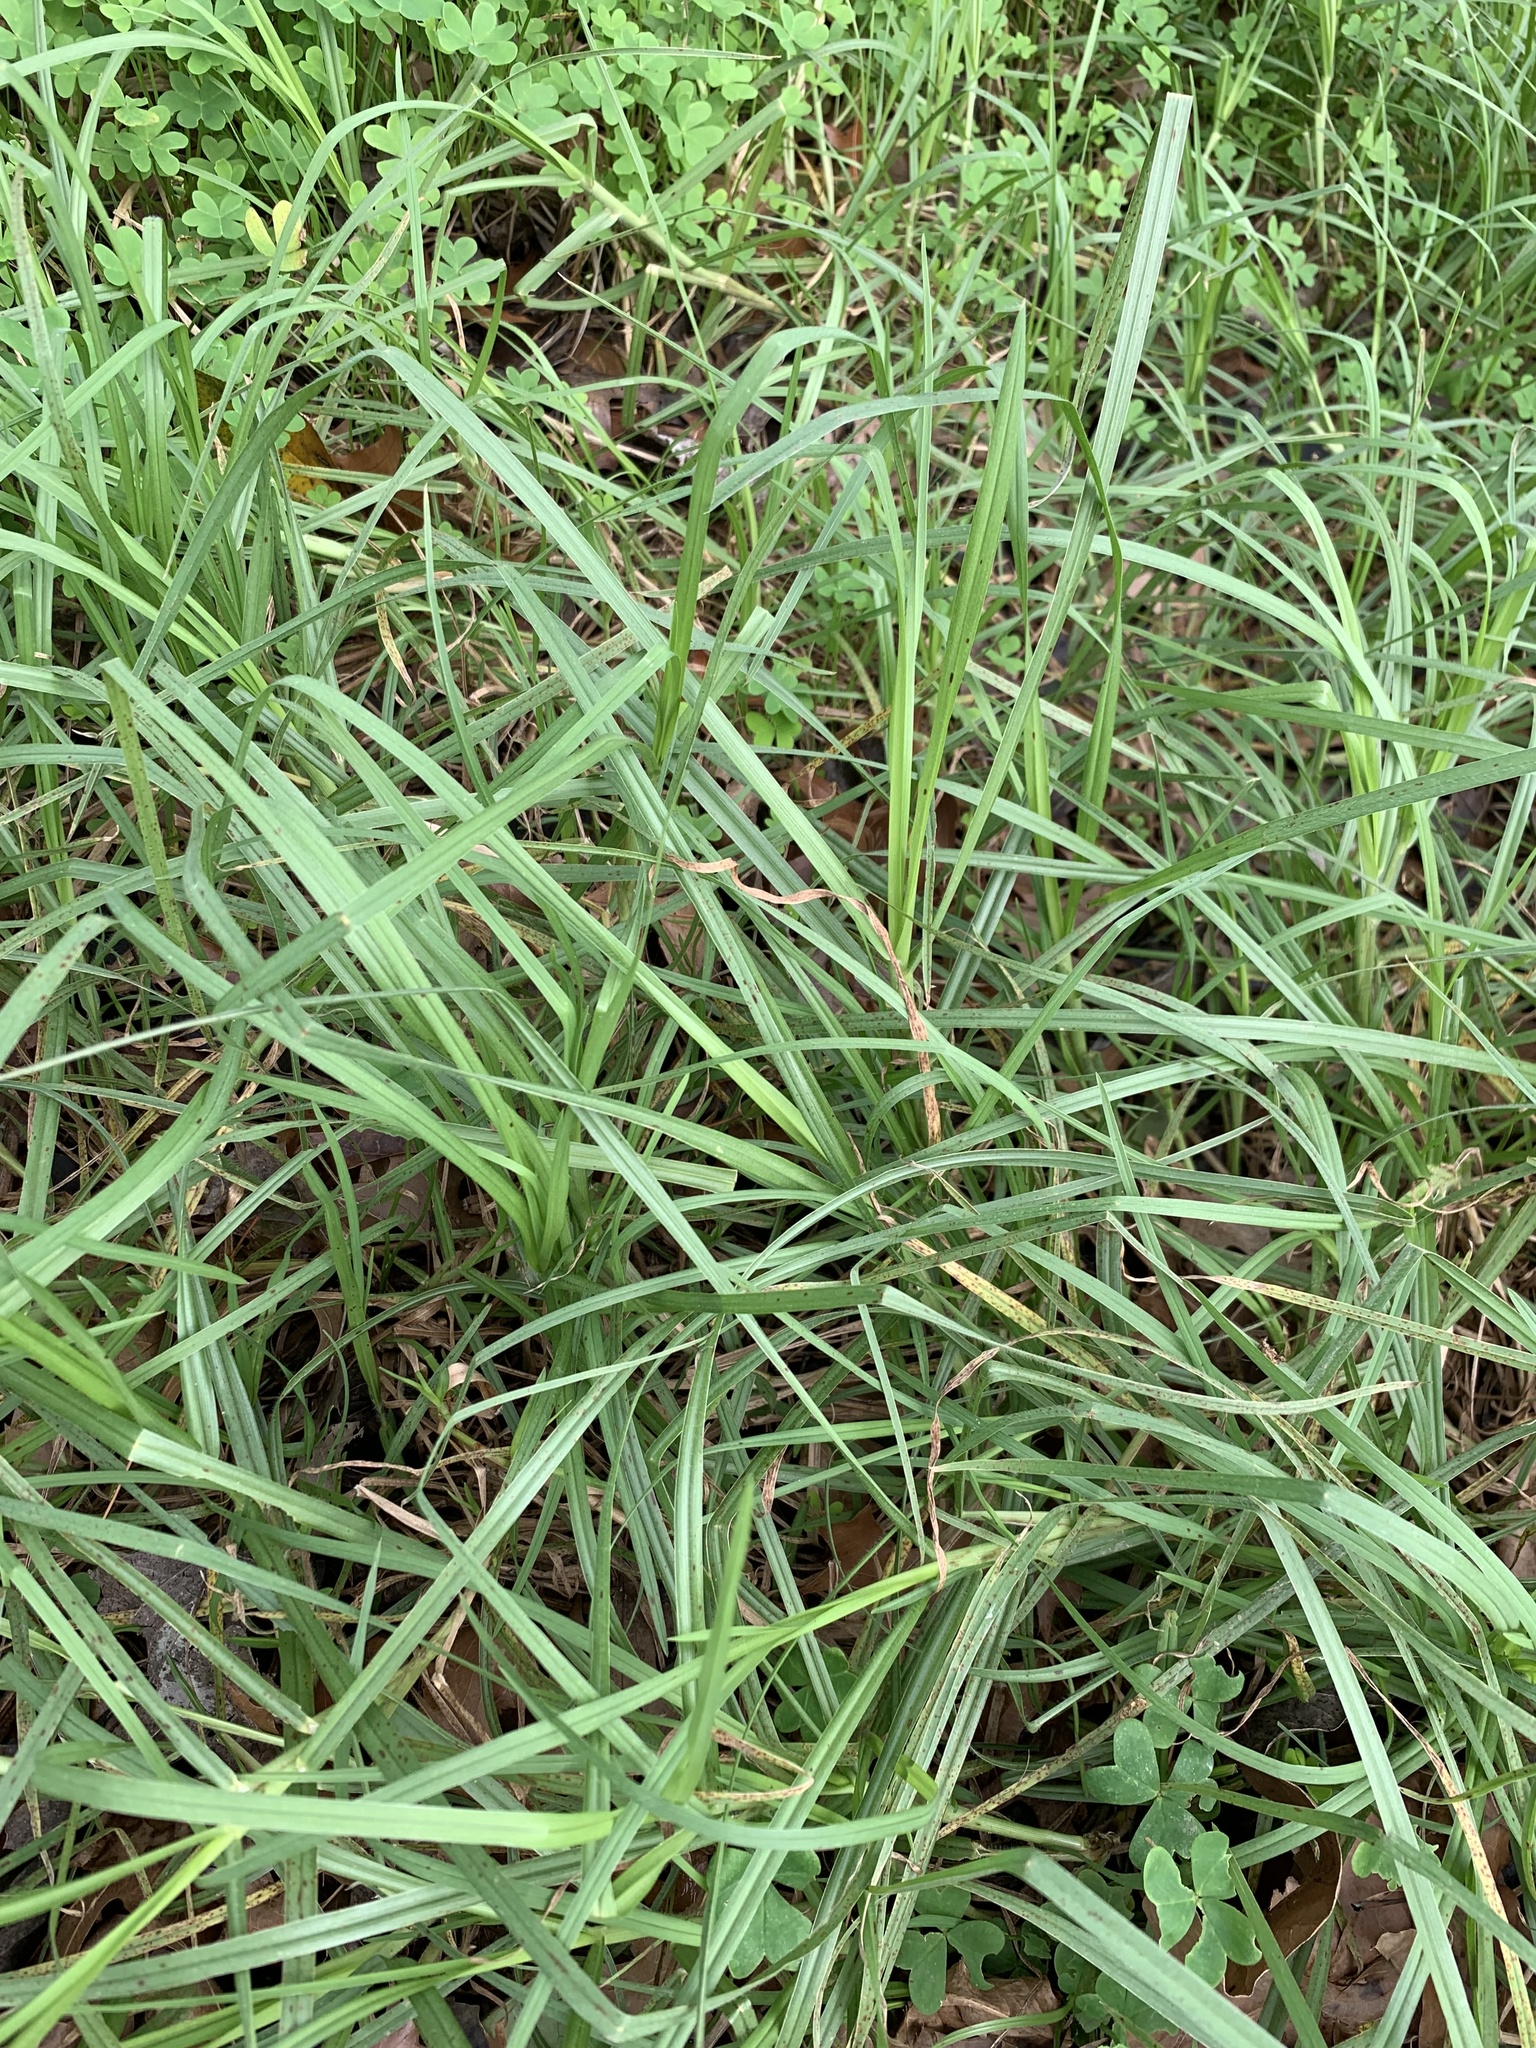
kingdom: Plantae
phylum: Tracheophyta
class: Liliopsida
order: Poales
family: Poaceae
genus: Cenchrus
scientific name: Cenchrus clandestinus
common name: Kikuyugrass
